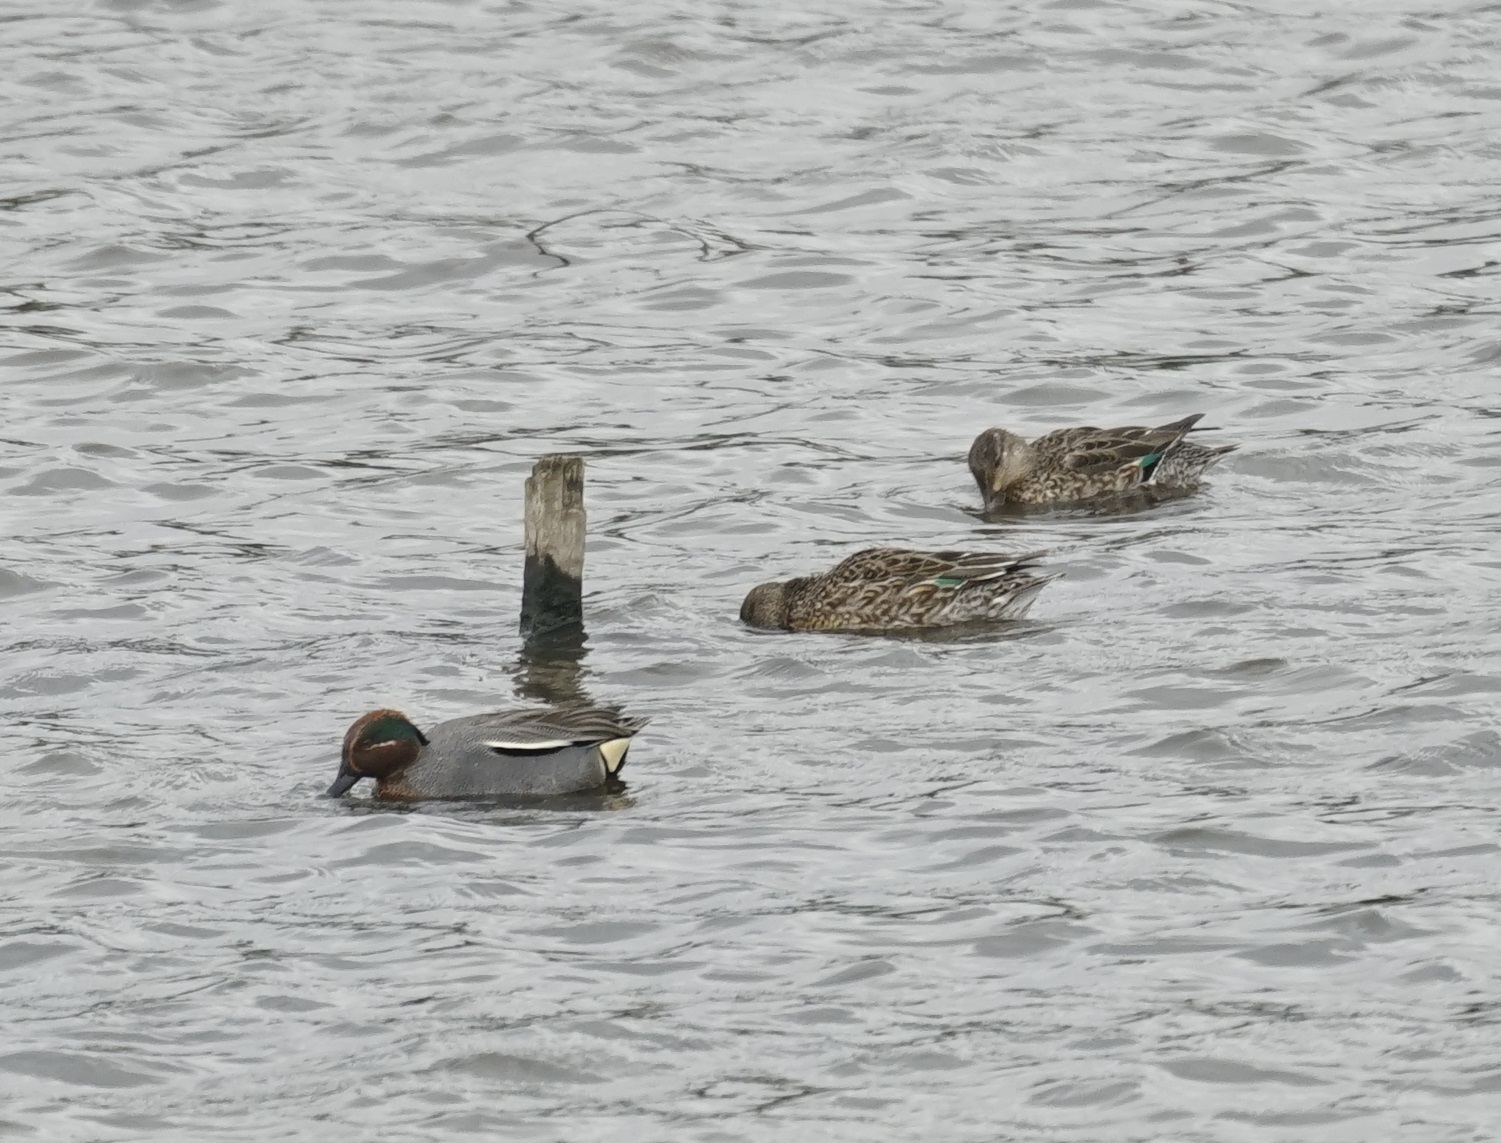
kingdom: Animalia
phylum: Chordata
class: Aves
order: Anseriformes
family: Anatidae
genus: Anas
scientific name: Anas crecca
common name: Eurasian teal
